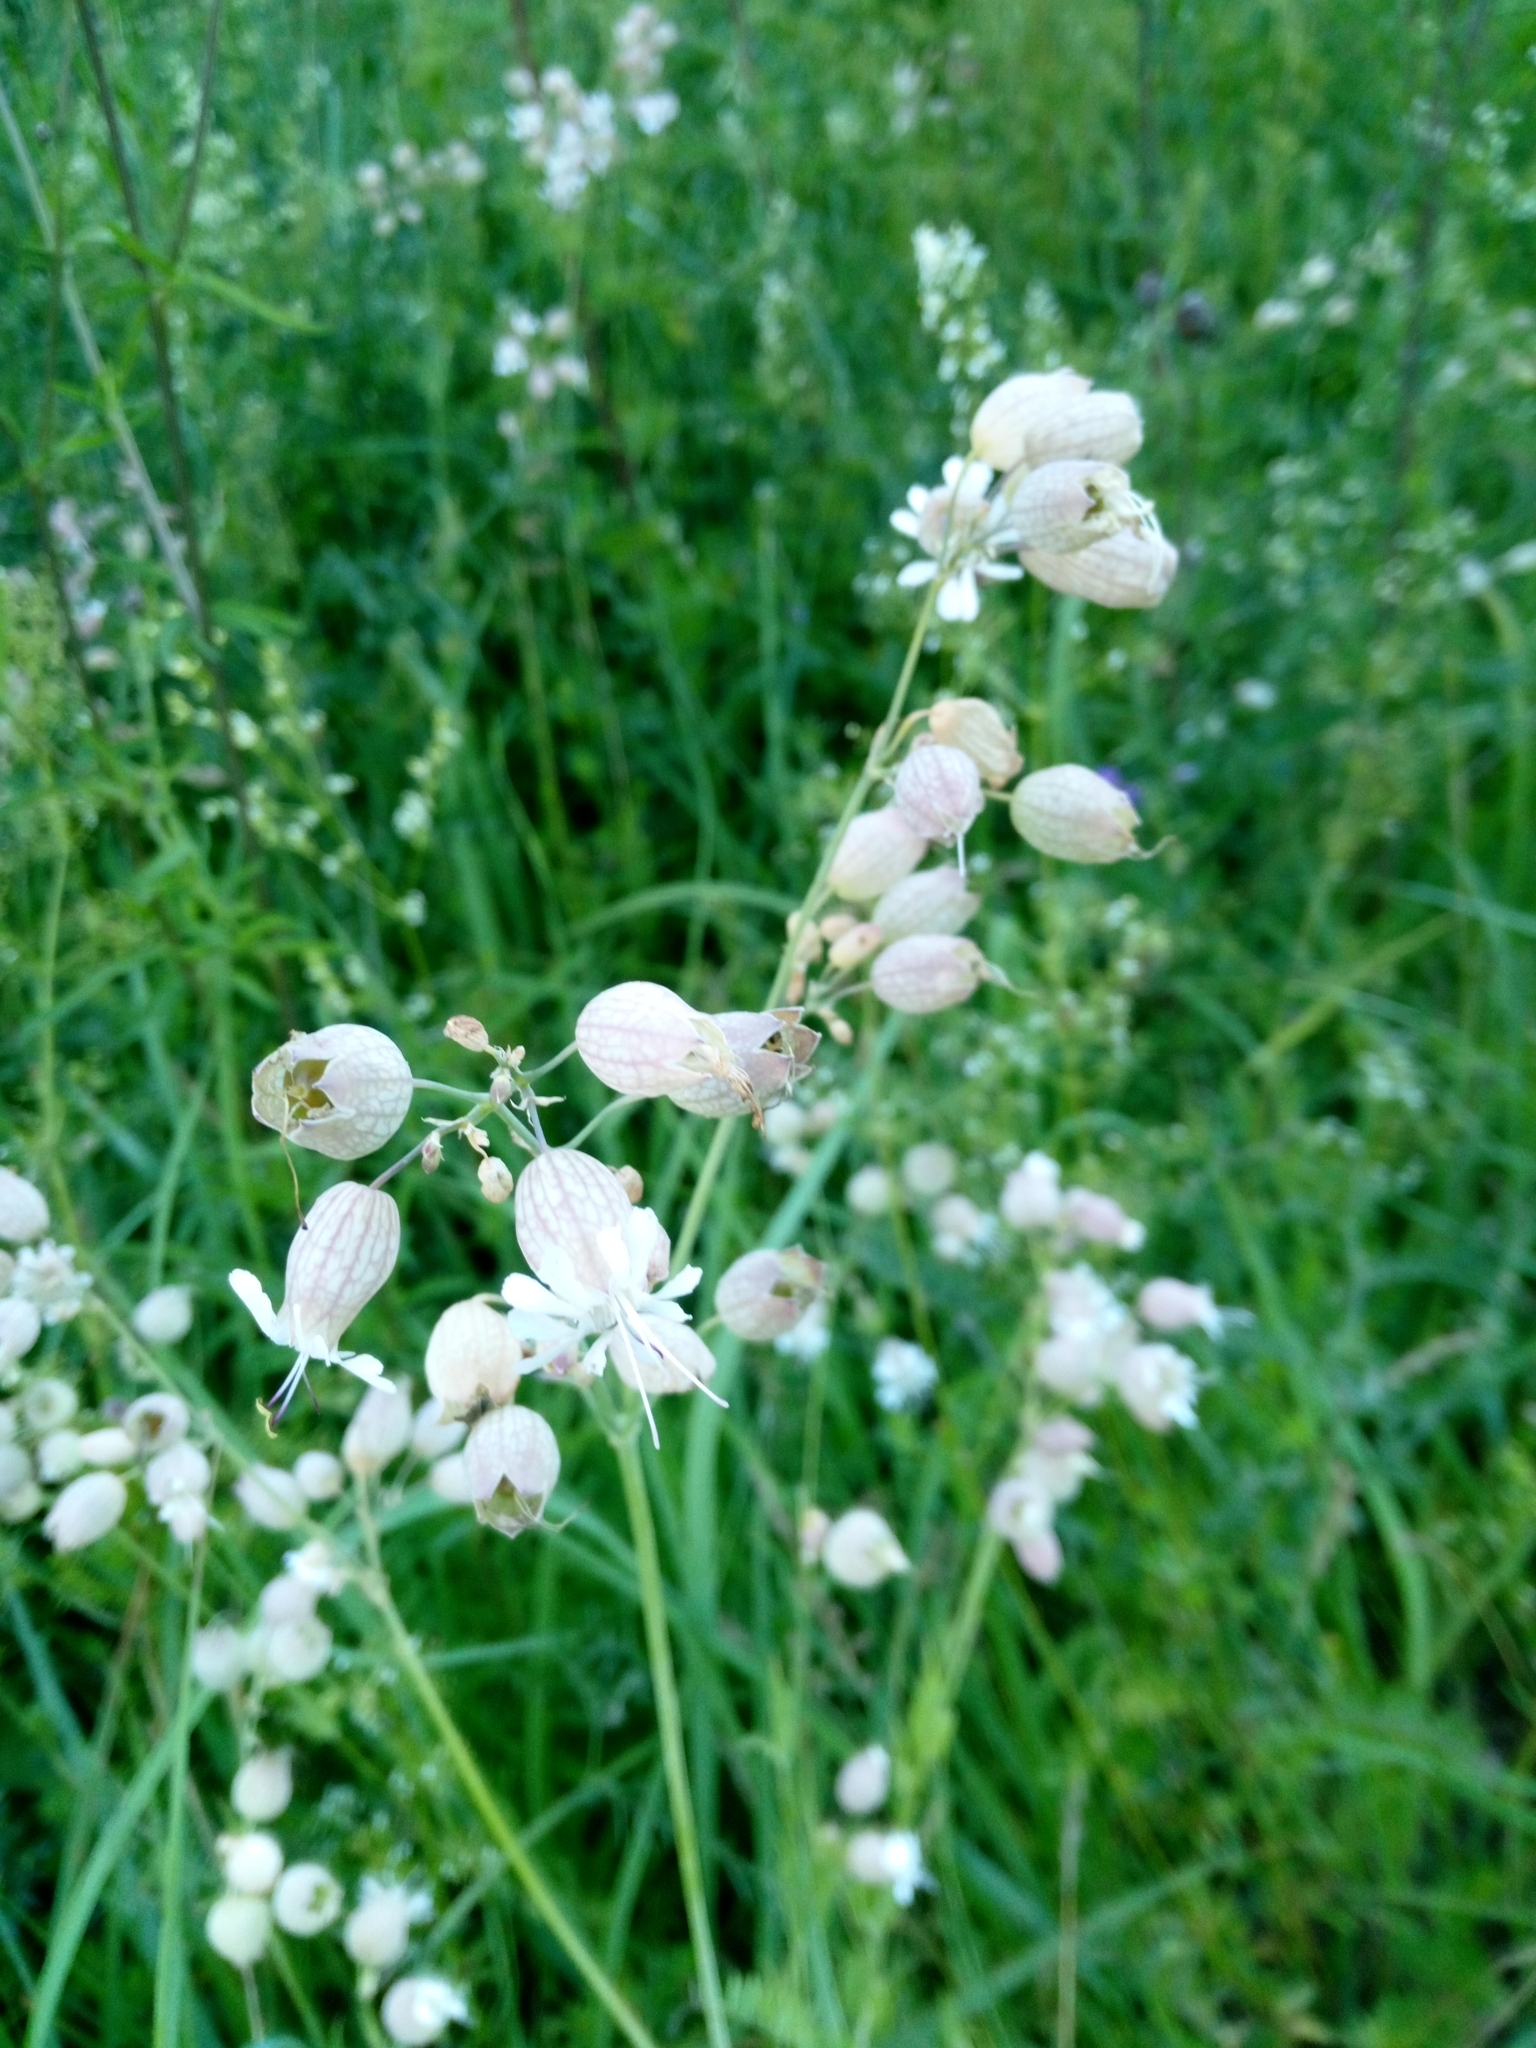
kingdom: Plantae
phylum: Tracheophyta
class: Magnoliopsida
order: Caryophyllales
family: Caryophyllaceae
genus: Silene
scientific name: Silene vulgaris
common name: Bladder campion
